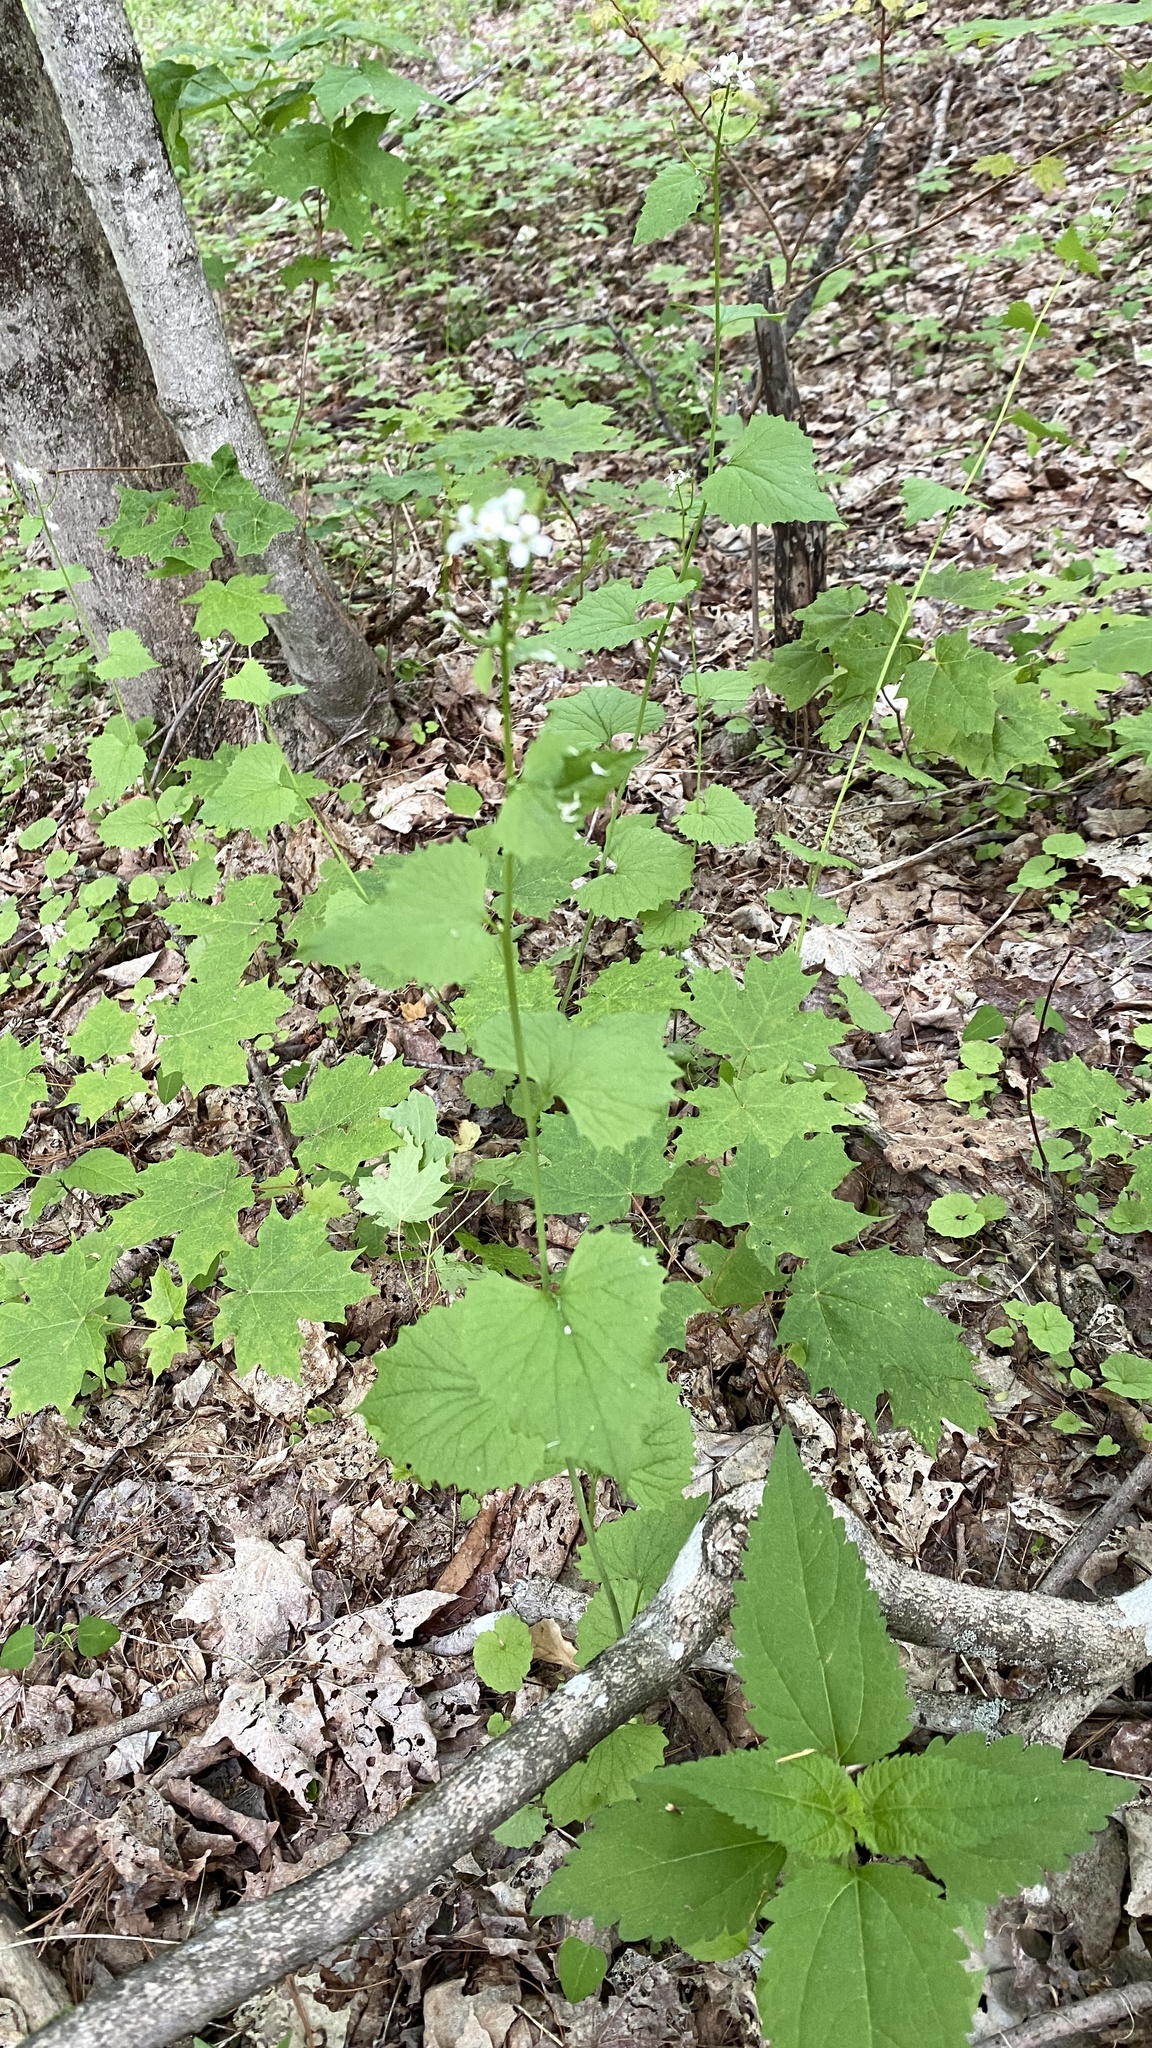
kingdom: Plantae
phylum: Tracheophyta
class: Magnoliopsida
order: Brassicales
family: Brassicaceae
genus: Alliaria
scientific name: Alliaria petiolata
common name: Garlic mustard
